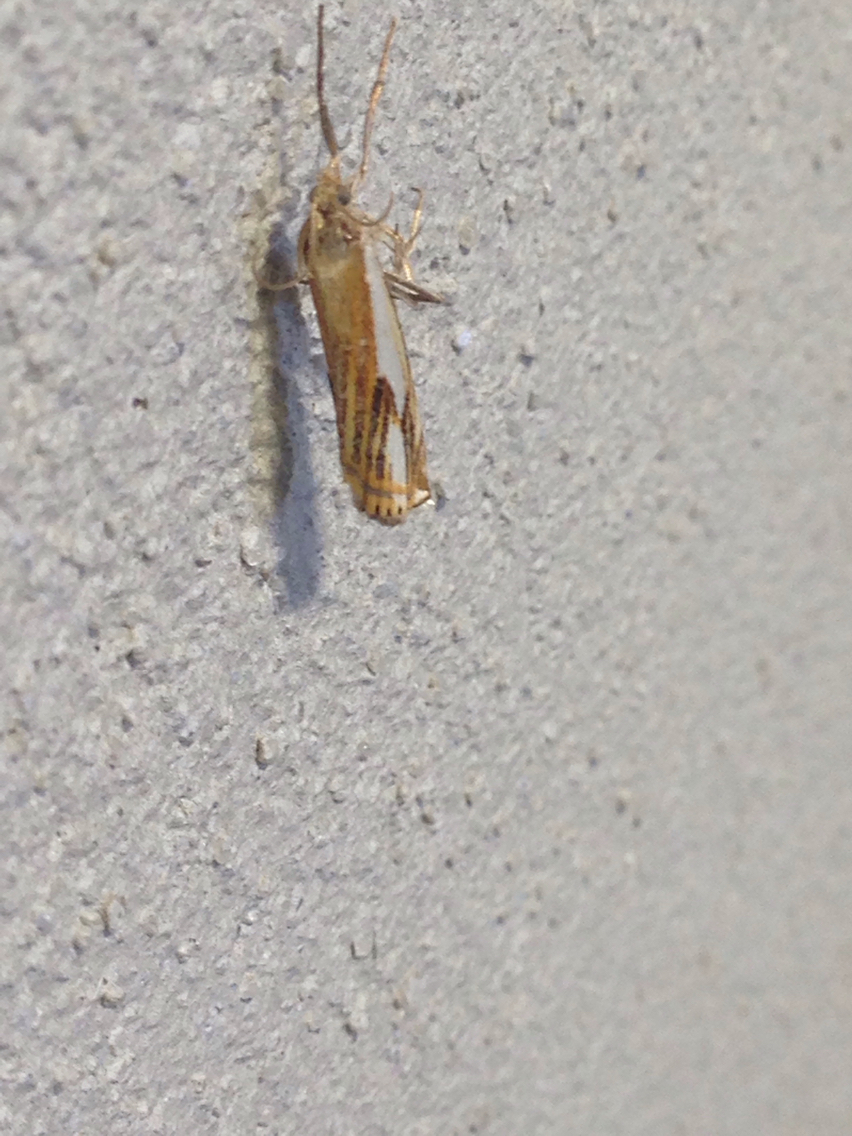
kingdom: Animalia
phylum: Arthropoda
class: Insecta
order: Lepidoptera
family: Crambidae
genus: Crambus
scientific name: Crambus agitatellus
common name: Double-banded grass-veneer
